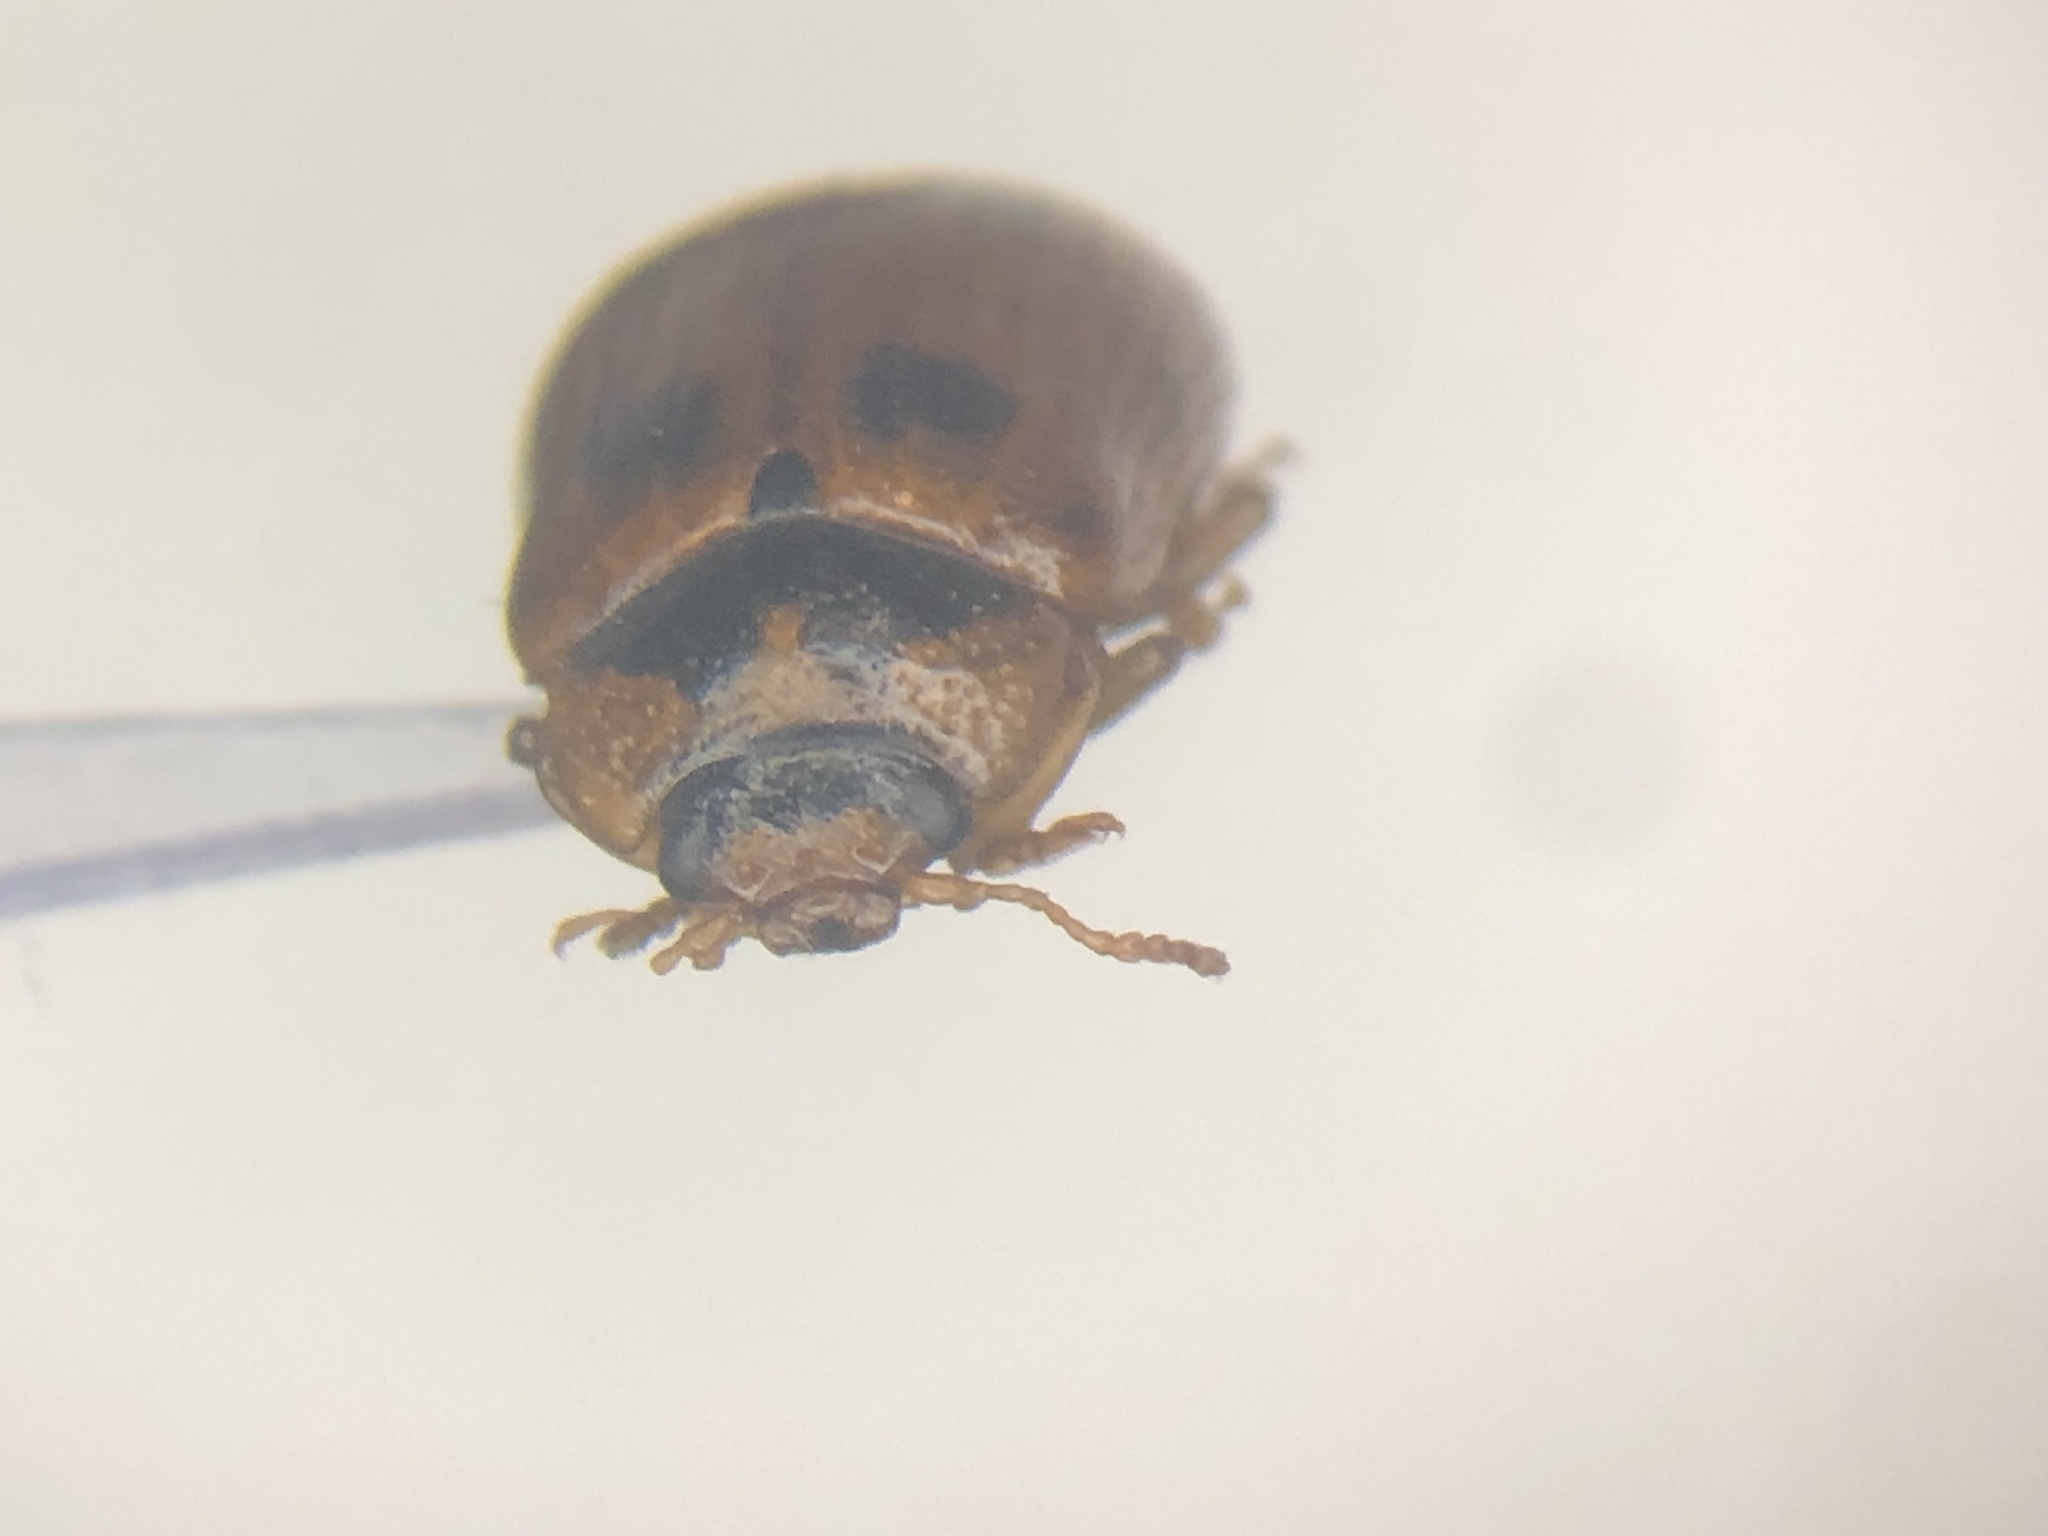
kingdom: Animalia
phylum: Arthropoda
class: Insecta
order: Coleoptera
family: Chrysomelidae
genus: Gonioctena
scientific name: Gonioctena americana
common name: American aspen beetle
